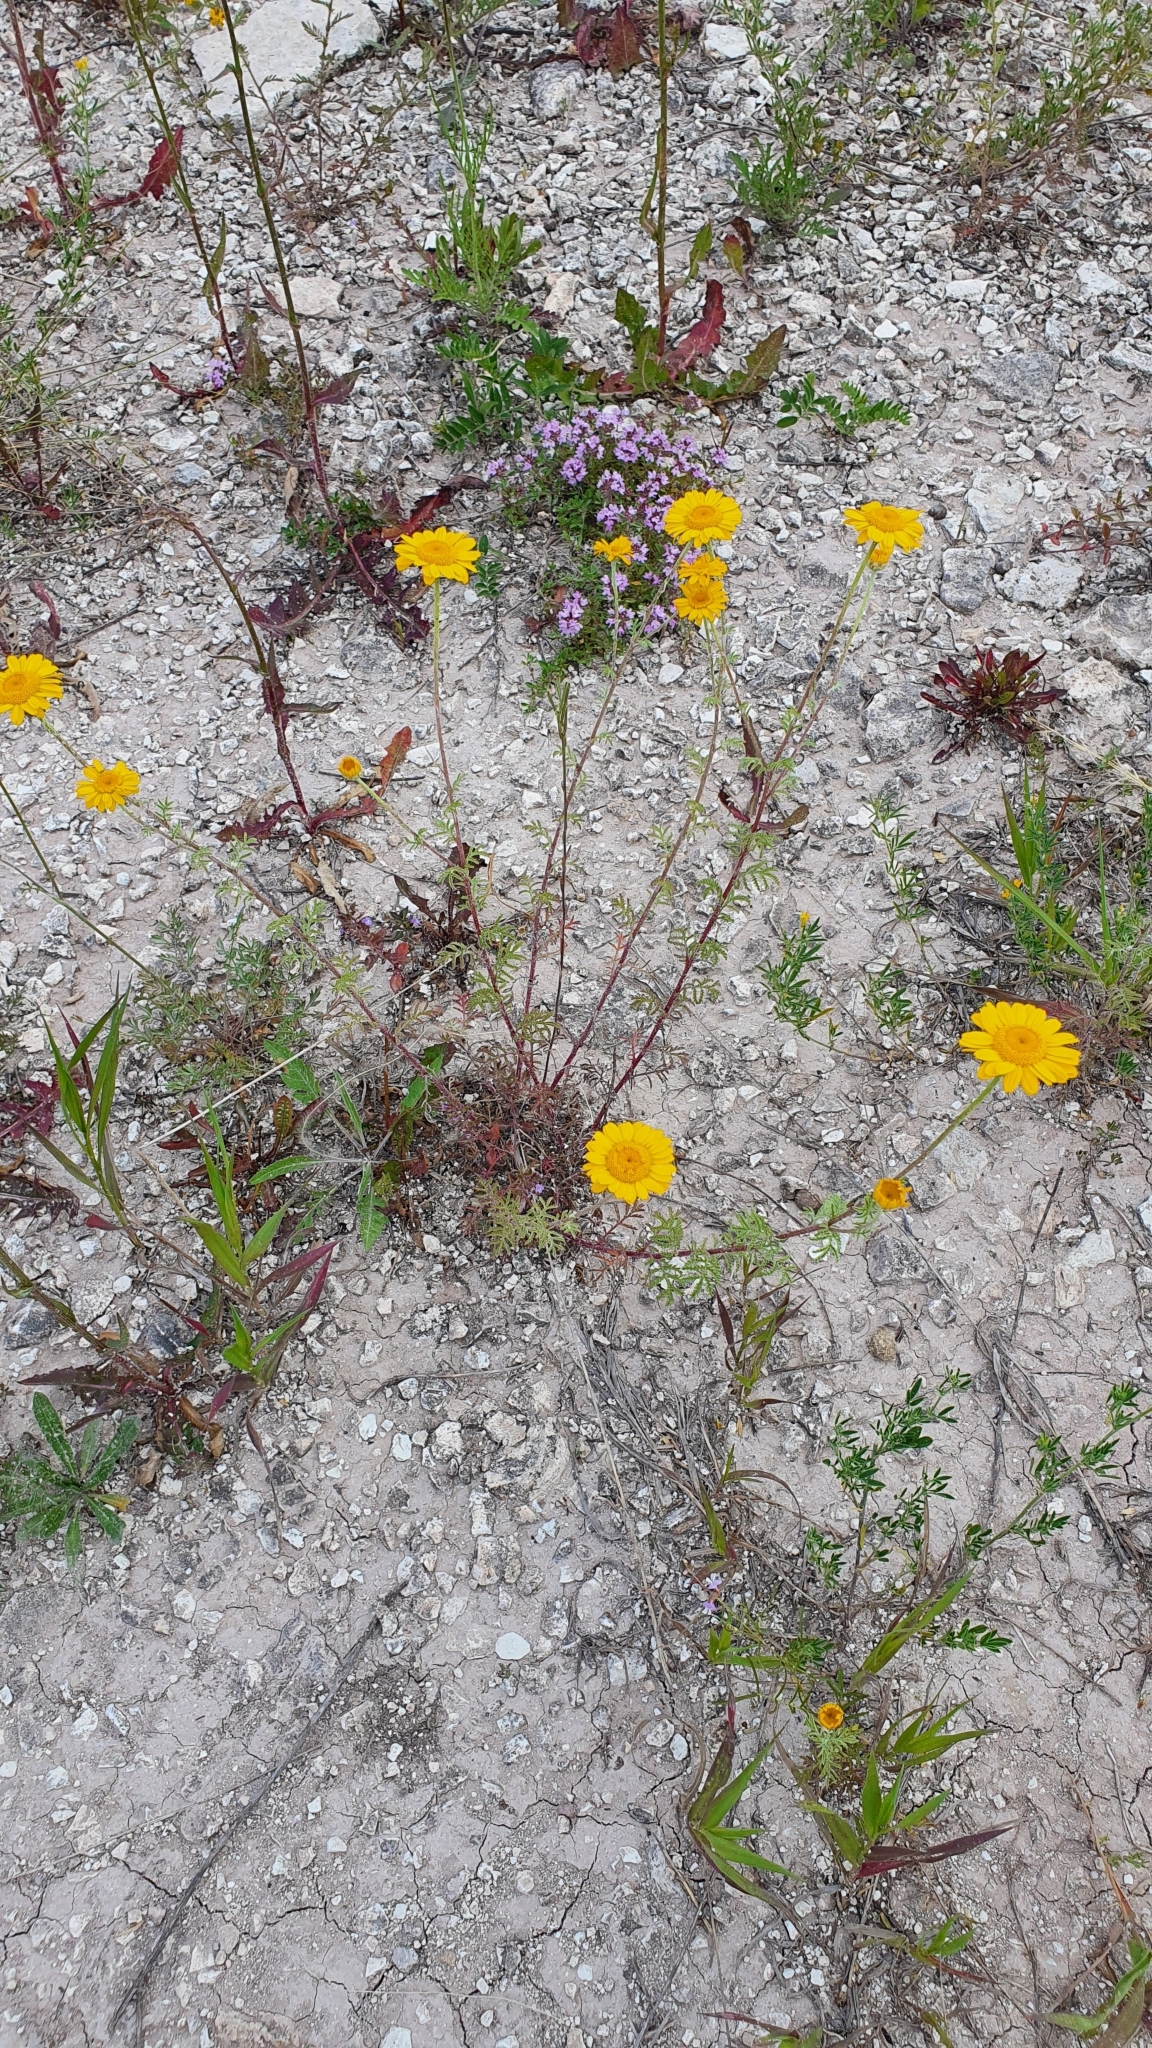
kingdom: Plantae
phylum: Tracheophyta
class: Magnoliopsida
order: Asterales
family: Asteraceae
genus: Cota
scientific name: Cota tinctoria
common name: Golden chamomile
